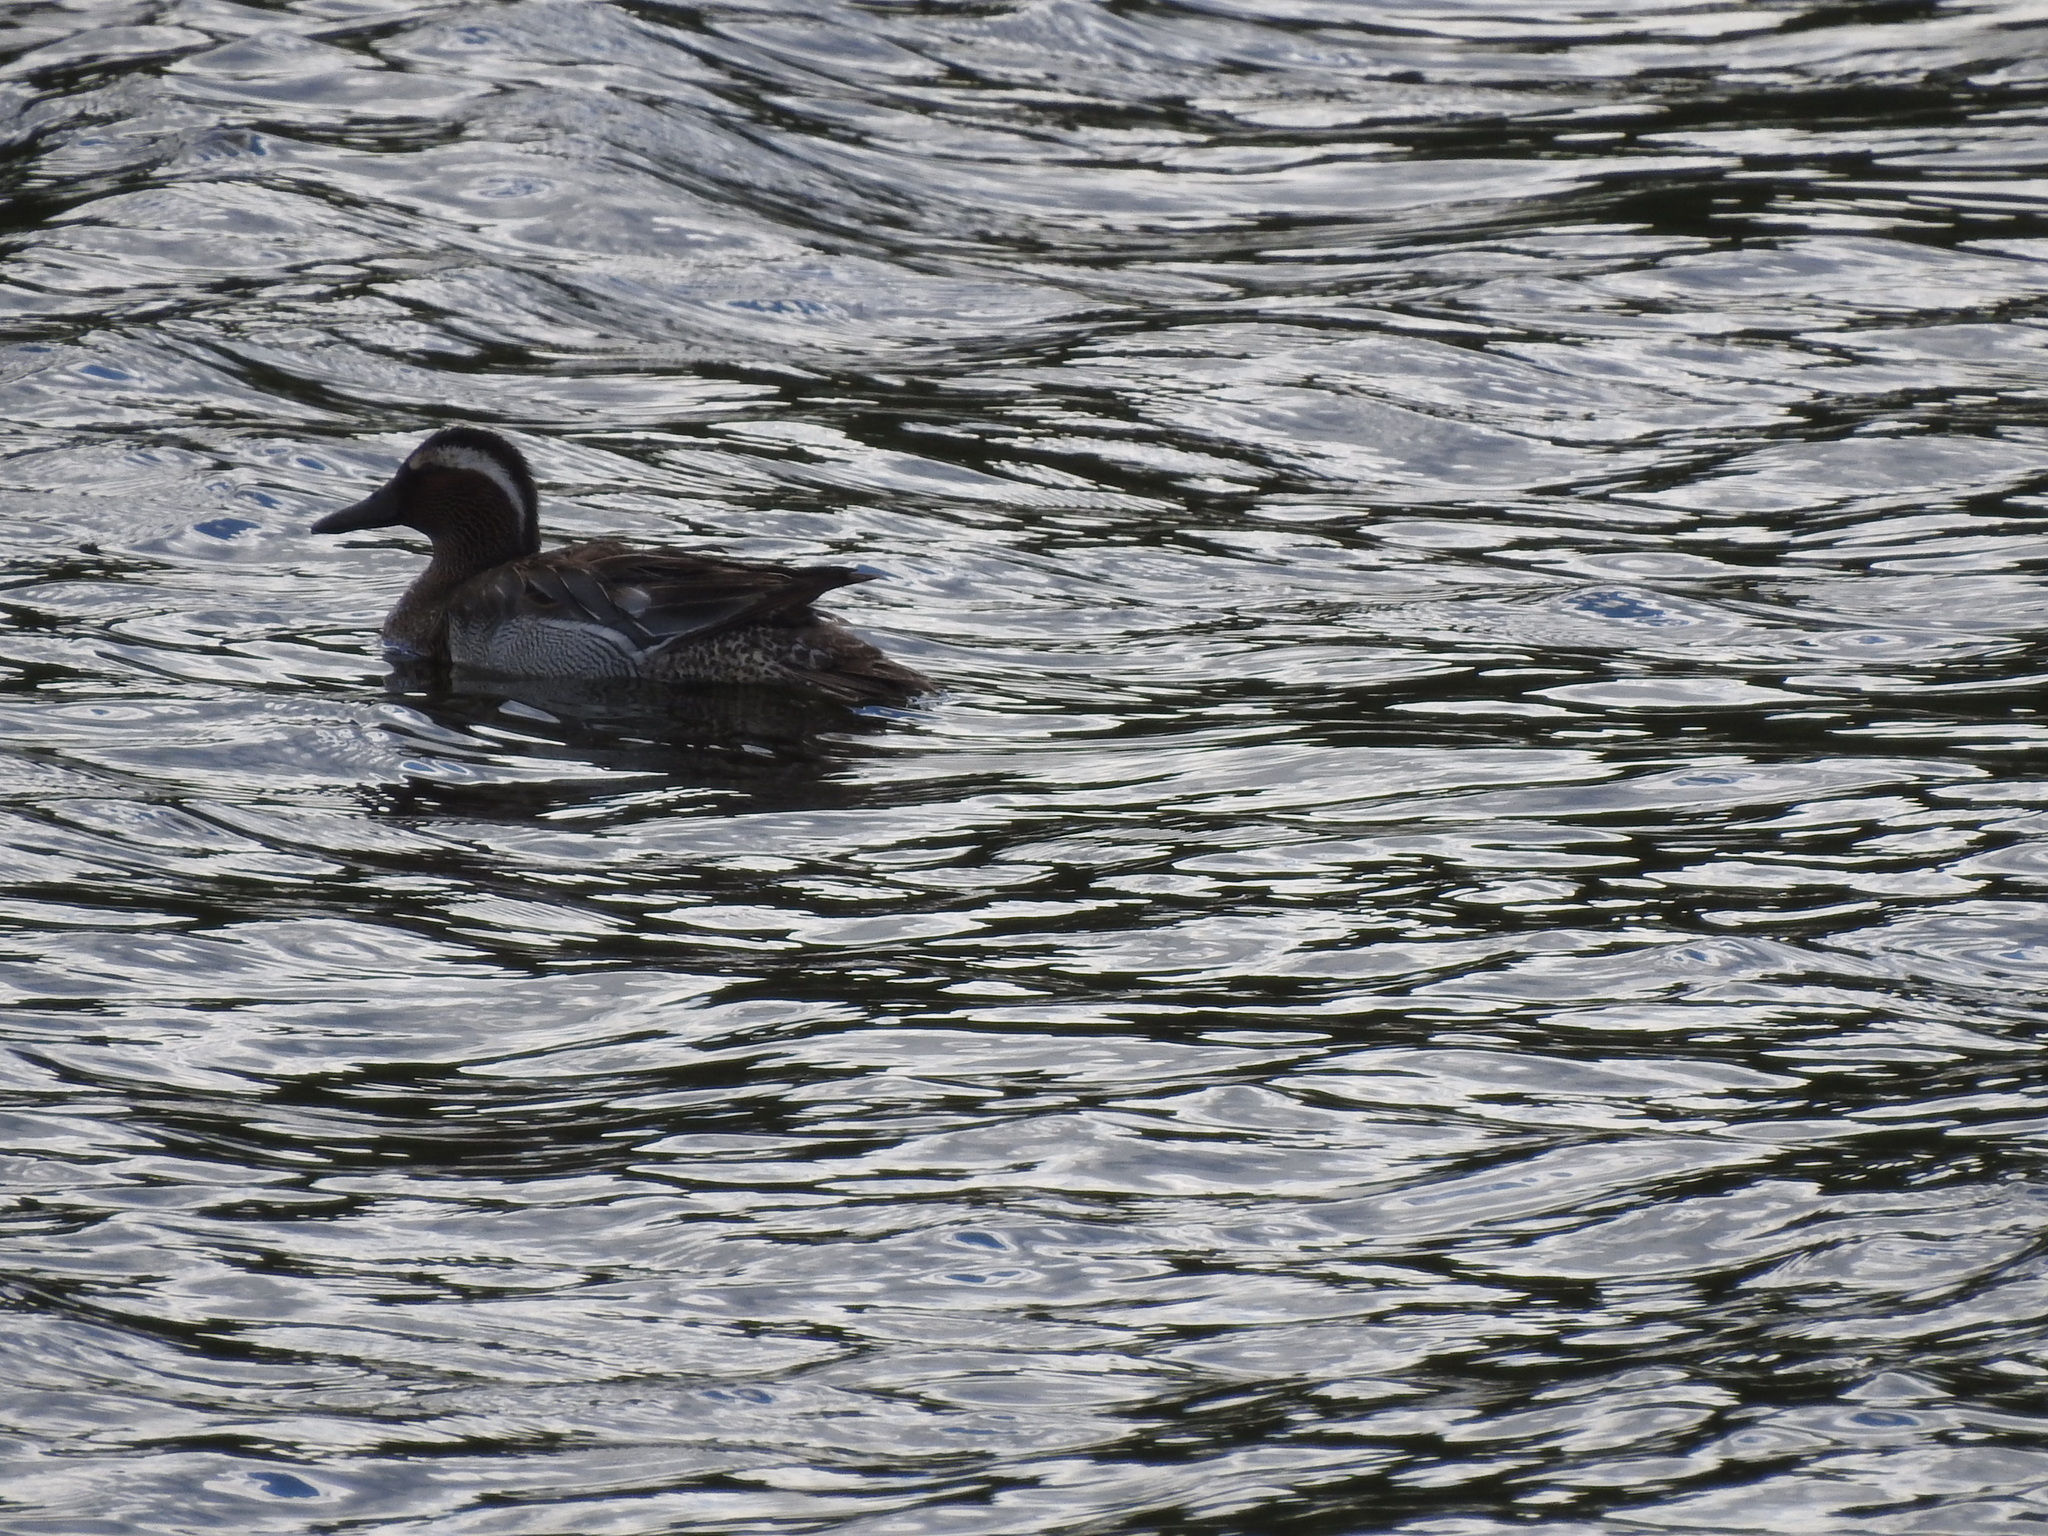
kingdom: Animalia
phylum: Chordata
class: Aves
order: Anseriformes
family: Anatidae
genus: Spatula
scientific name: Spatula querquedula
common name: Garganey
